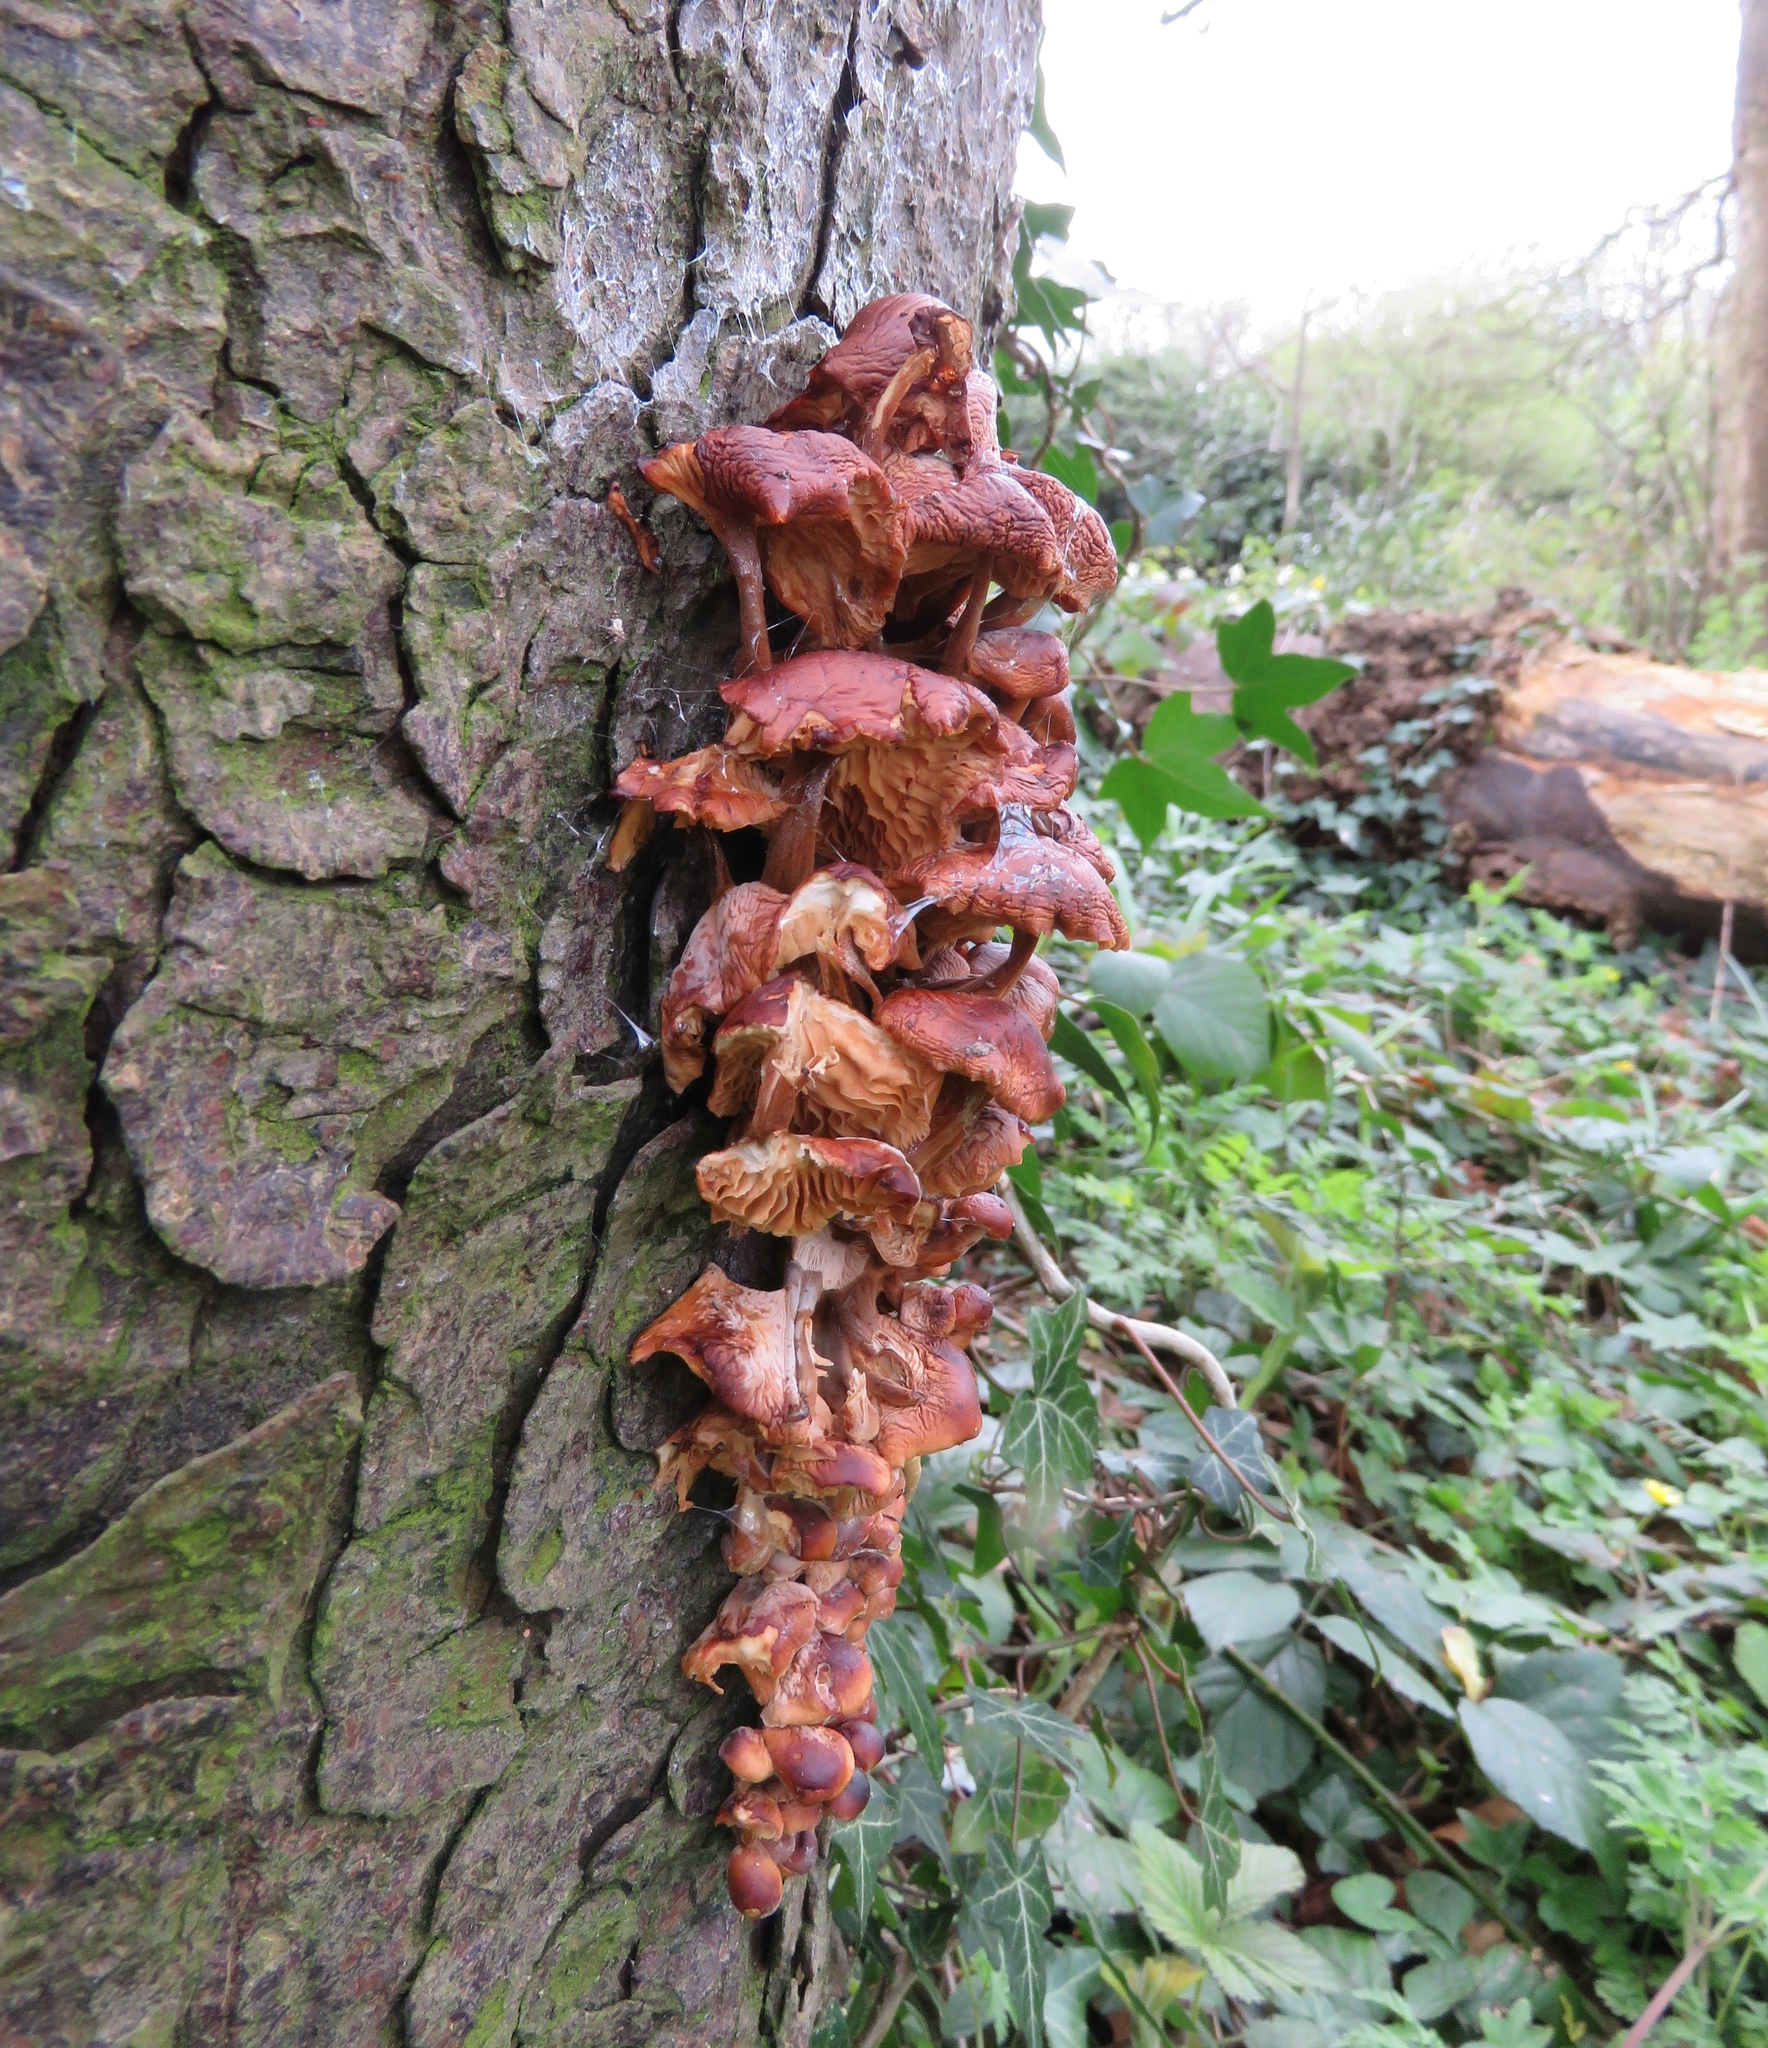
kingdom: Fungi
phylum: Basidiomycota
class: Agaricomycetes
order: Agaricales
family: Physalacriaceae
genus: Flammulina
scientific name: Flammulina
